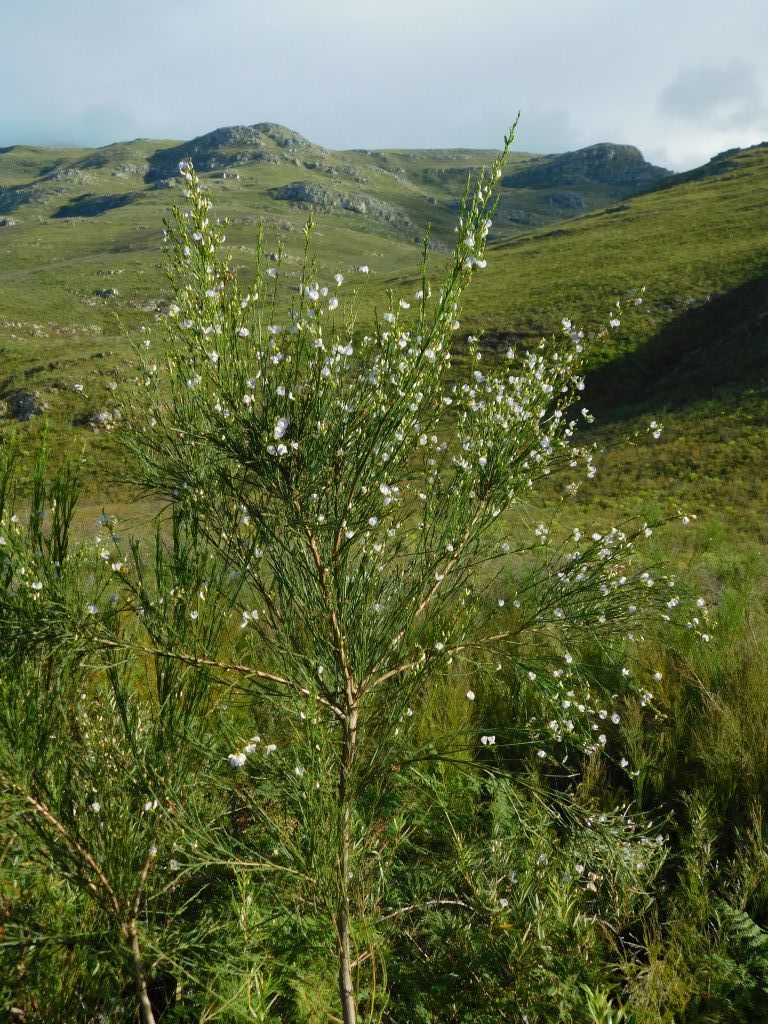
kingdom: Plantae
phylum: Tracheophyta
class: Magnoliopsida
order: Fabales
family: Fabaceae
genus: Psoralea
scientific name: Psoralea usitata
